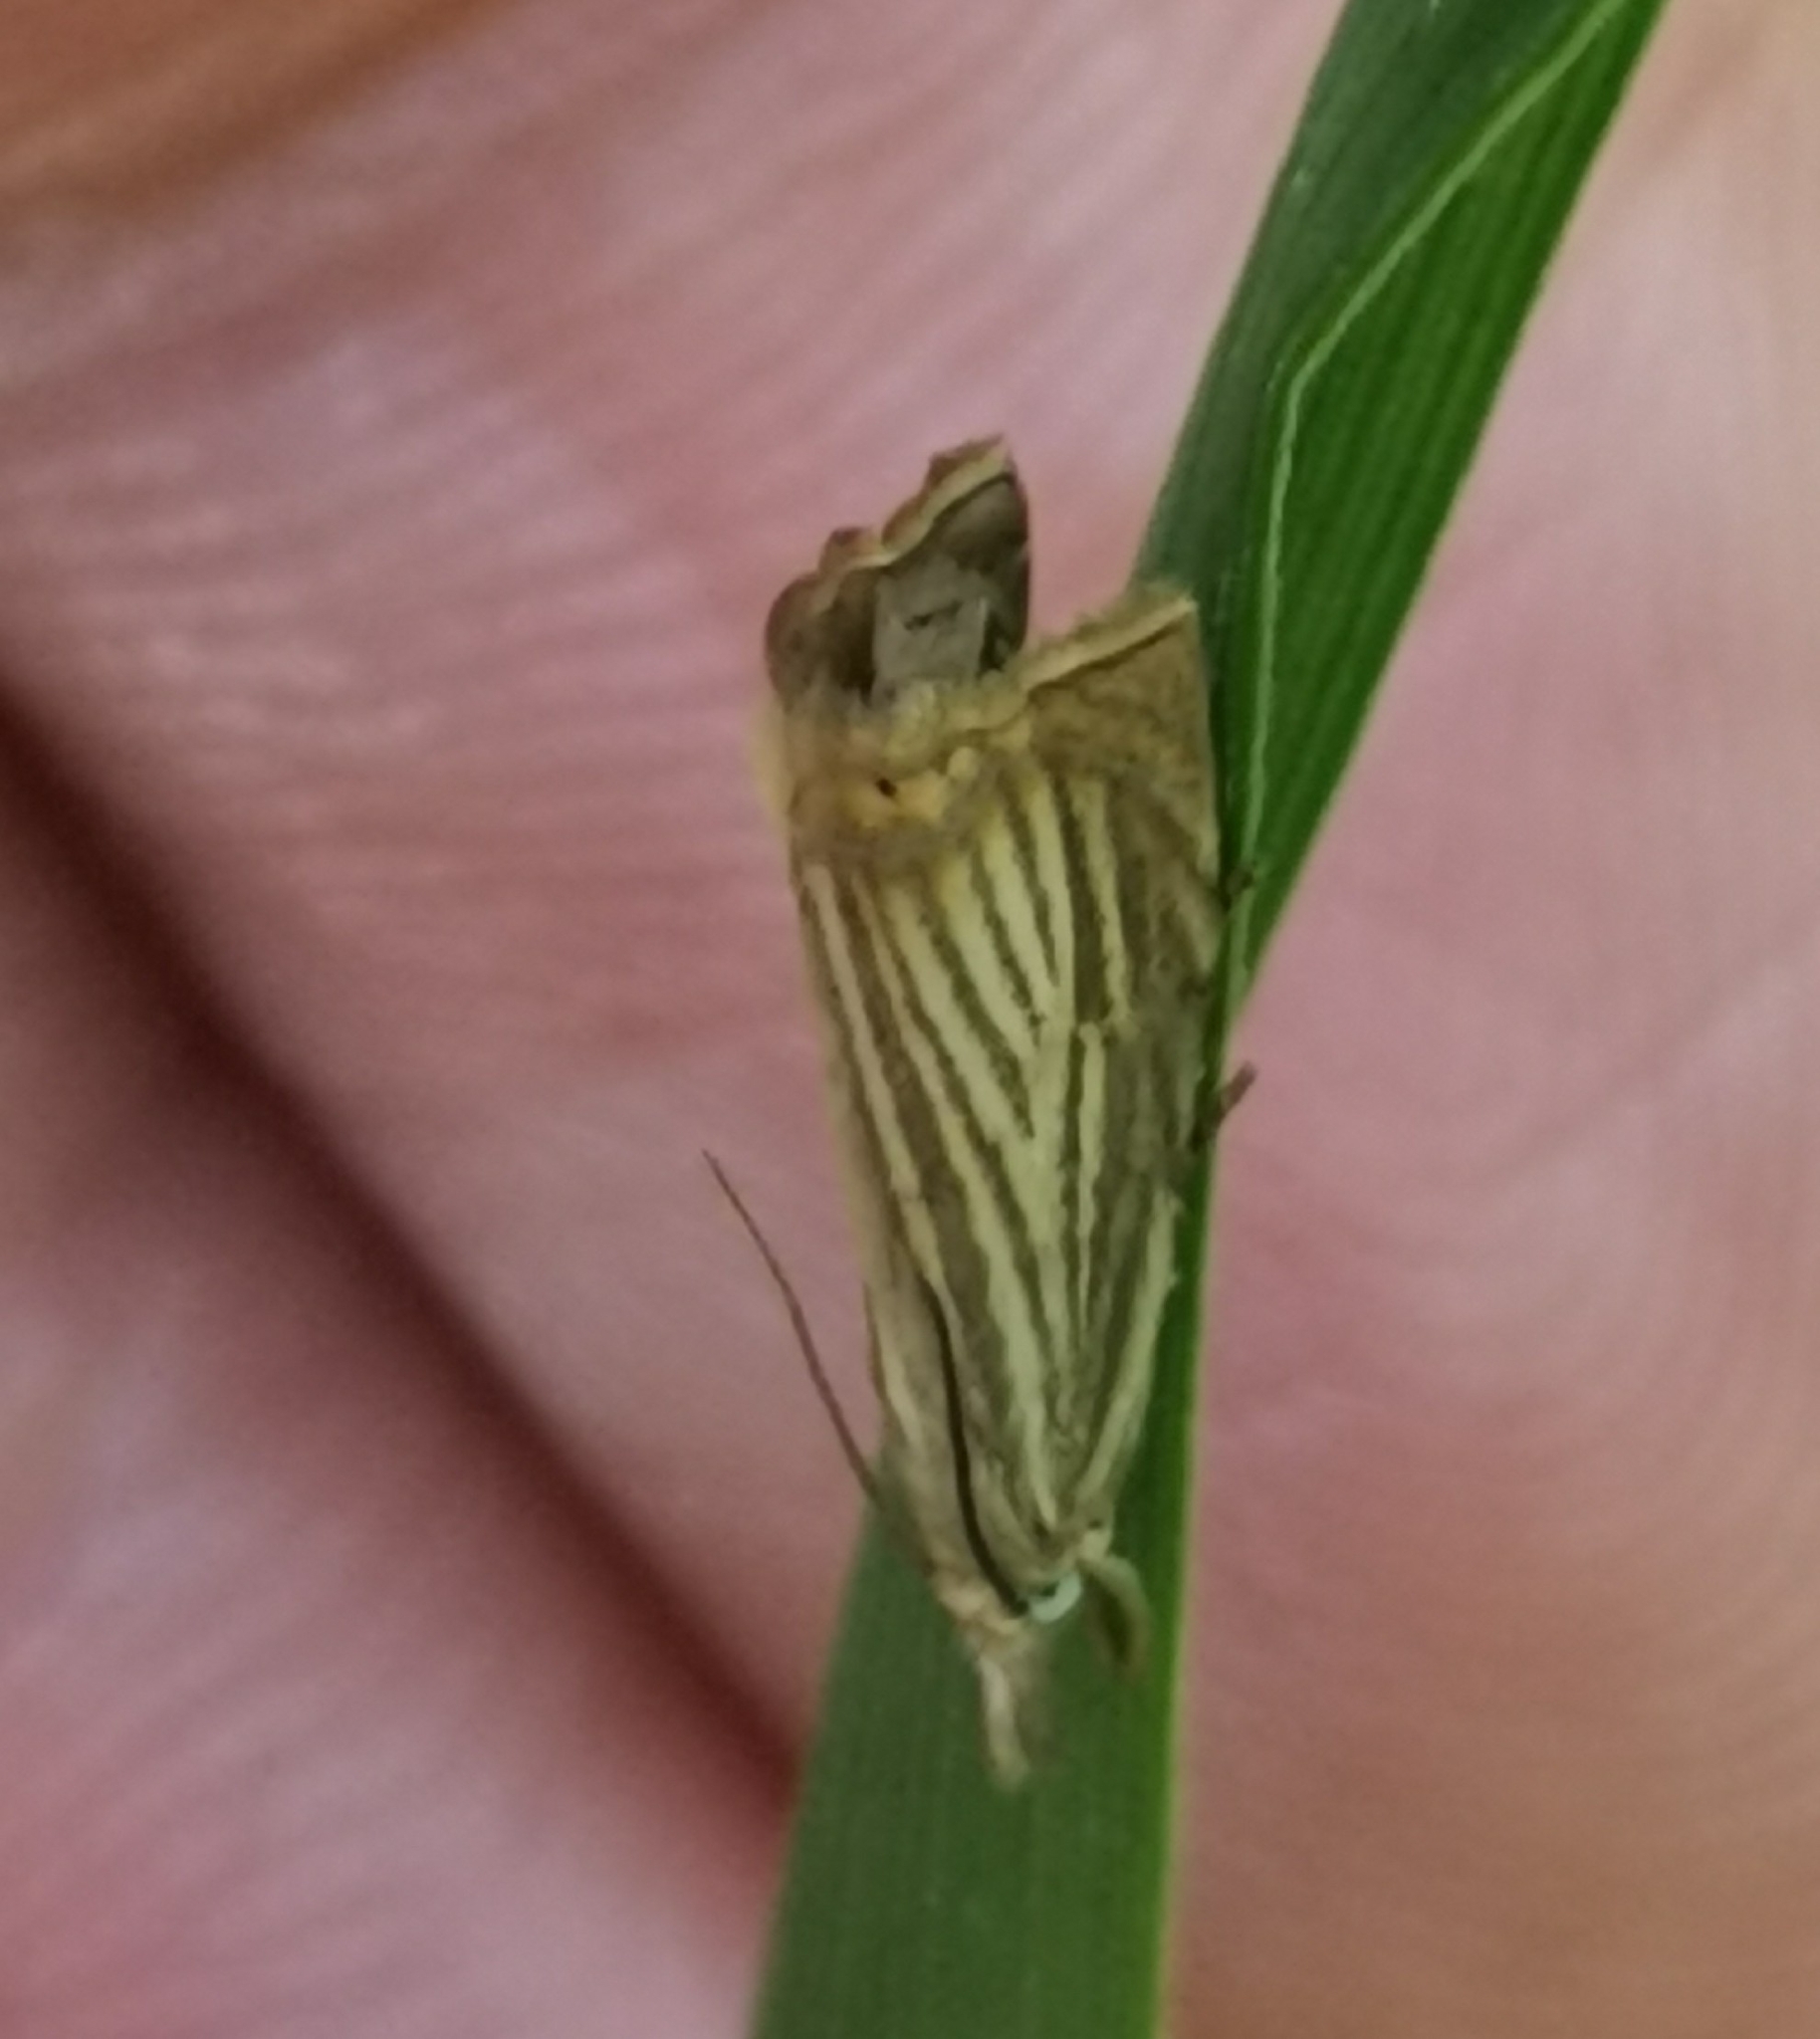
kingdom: Animalia
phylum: Arthropoda
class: Insecta
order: Lepidoptera
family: Crambidae
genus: Chrysoteuchia
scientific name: Chrysoteuchia culmella
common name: Garden grass-veneer
